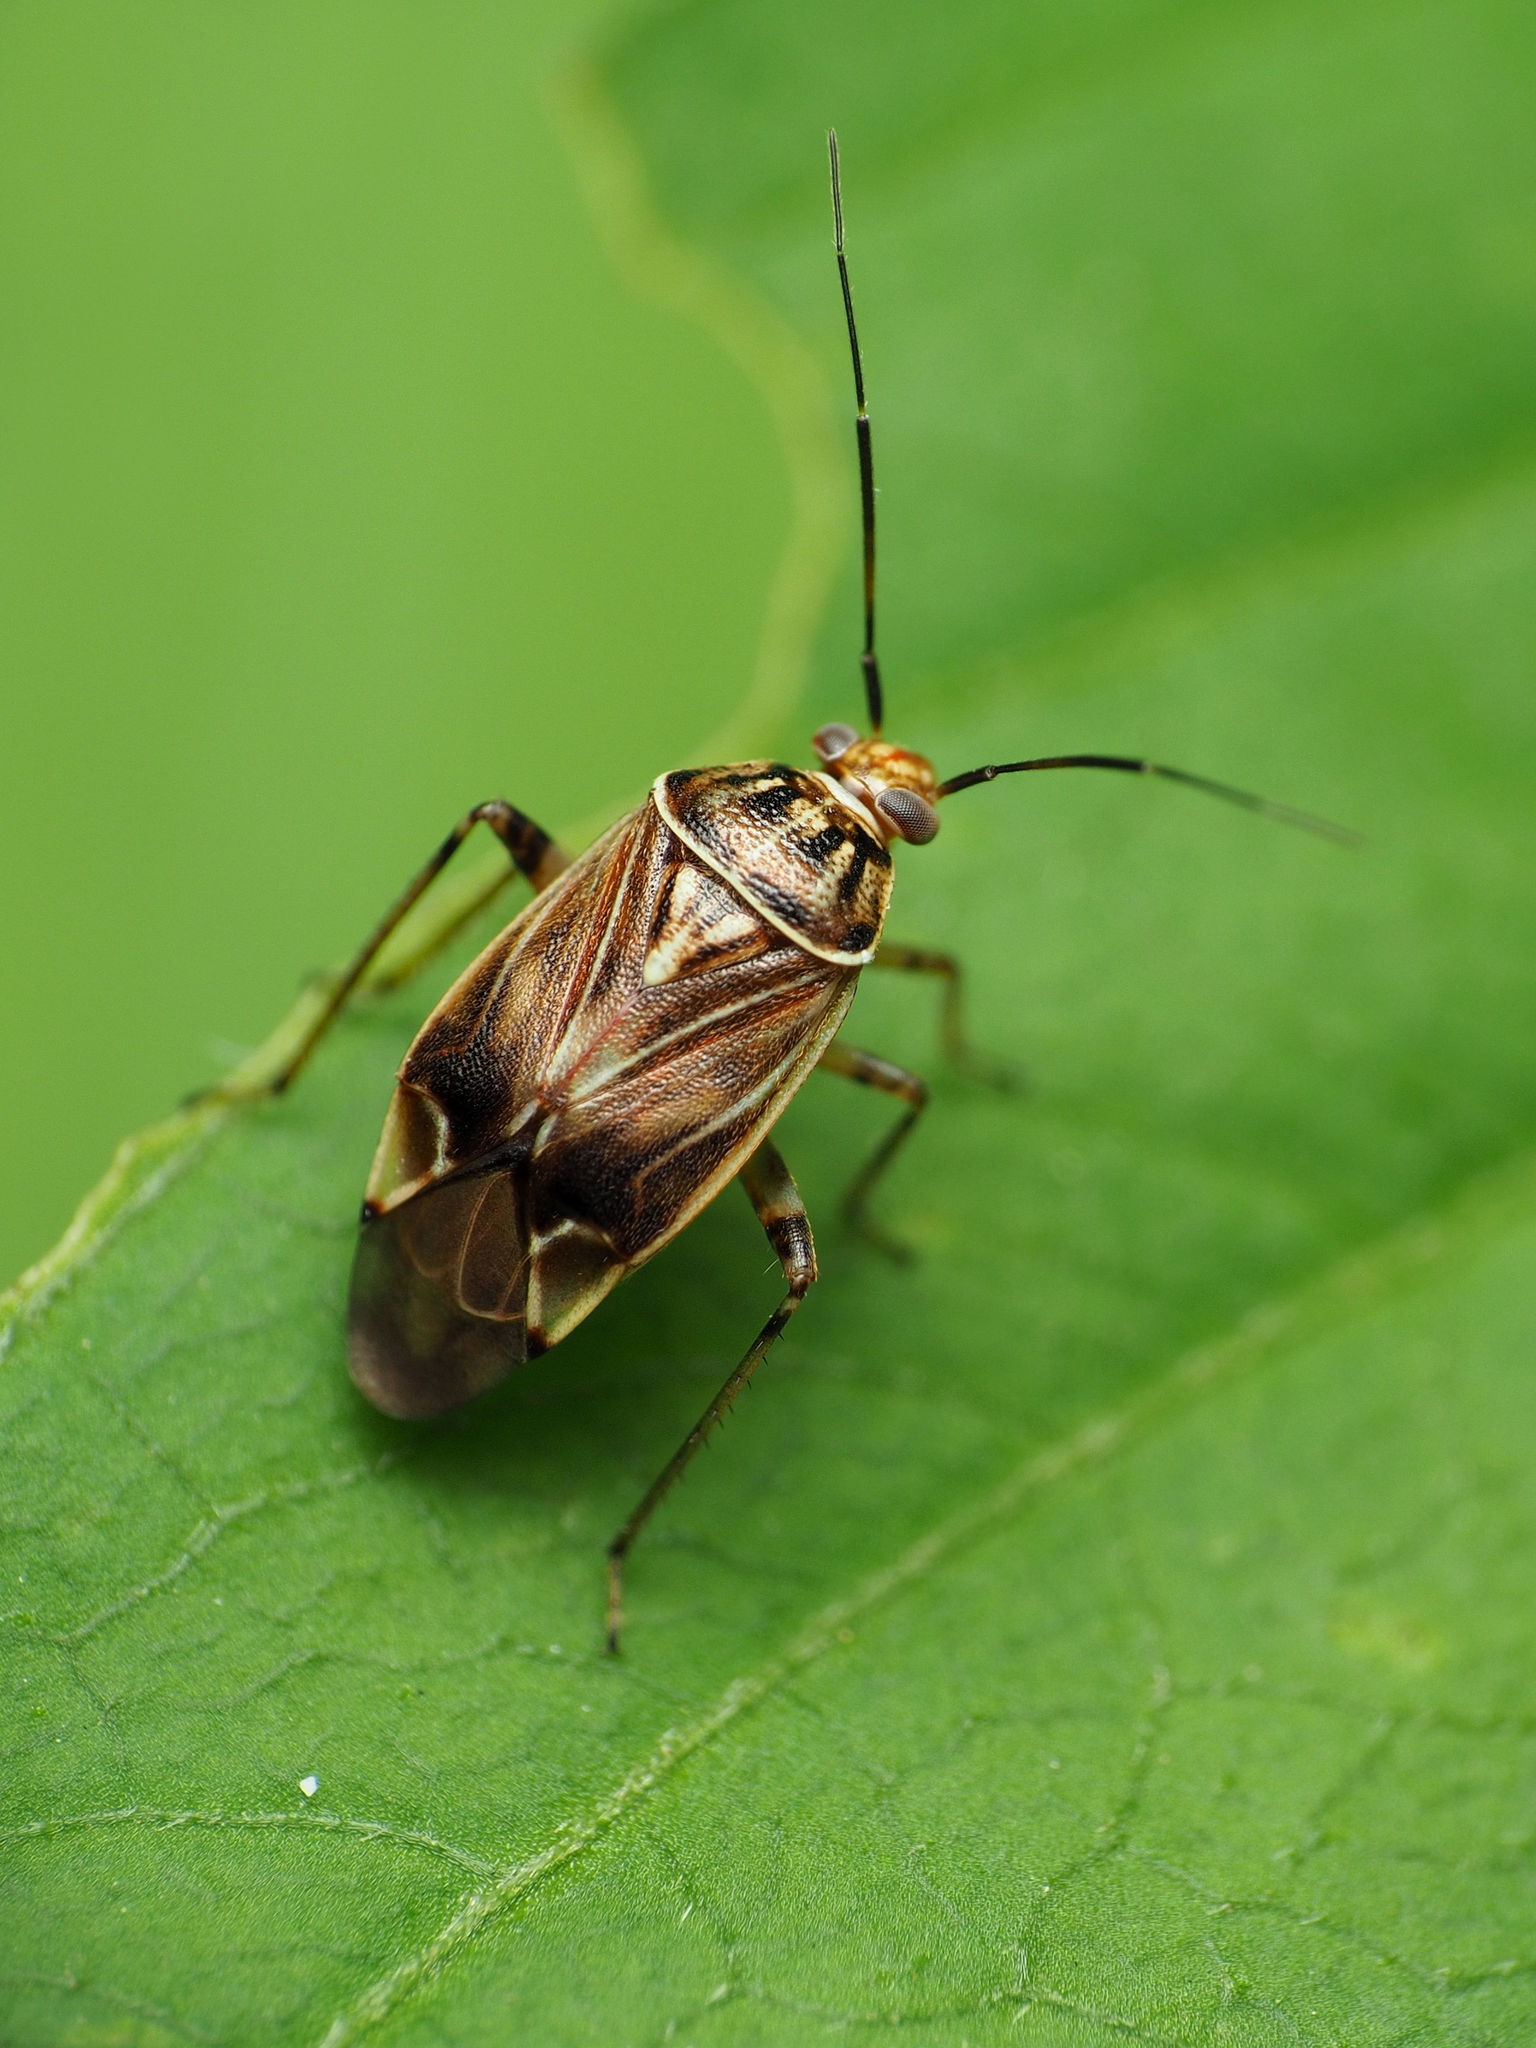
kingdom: Animalia
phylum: Arthropoda
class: Insecta
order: Hemiptera
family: Miridae
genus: Lygus
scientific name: Lygus lineolaris
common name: North american tarnished plant bug
